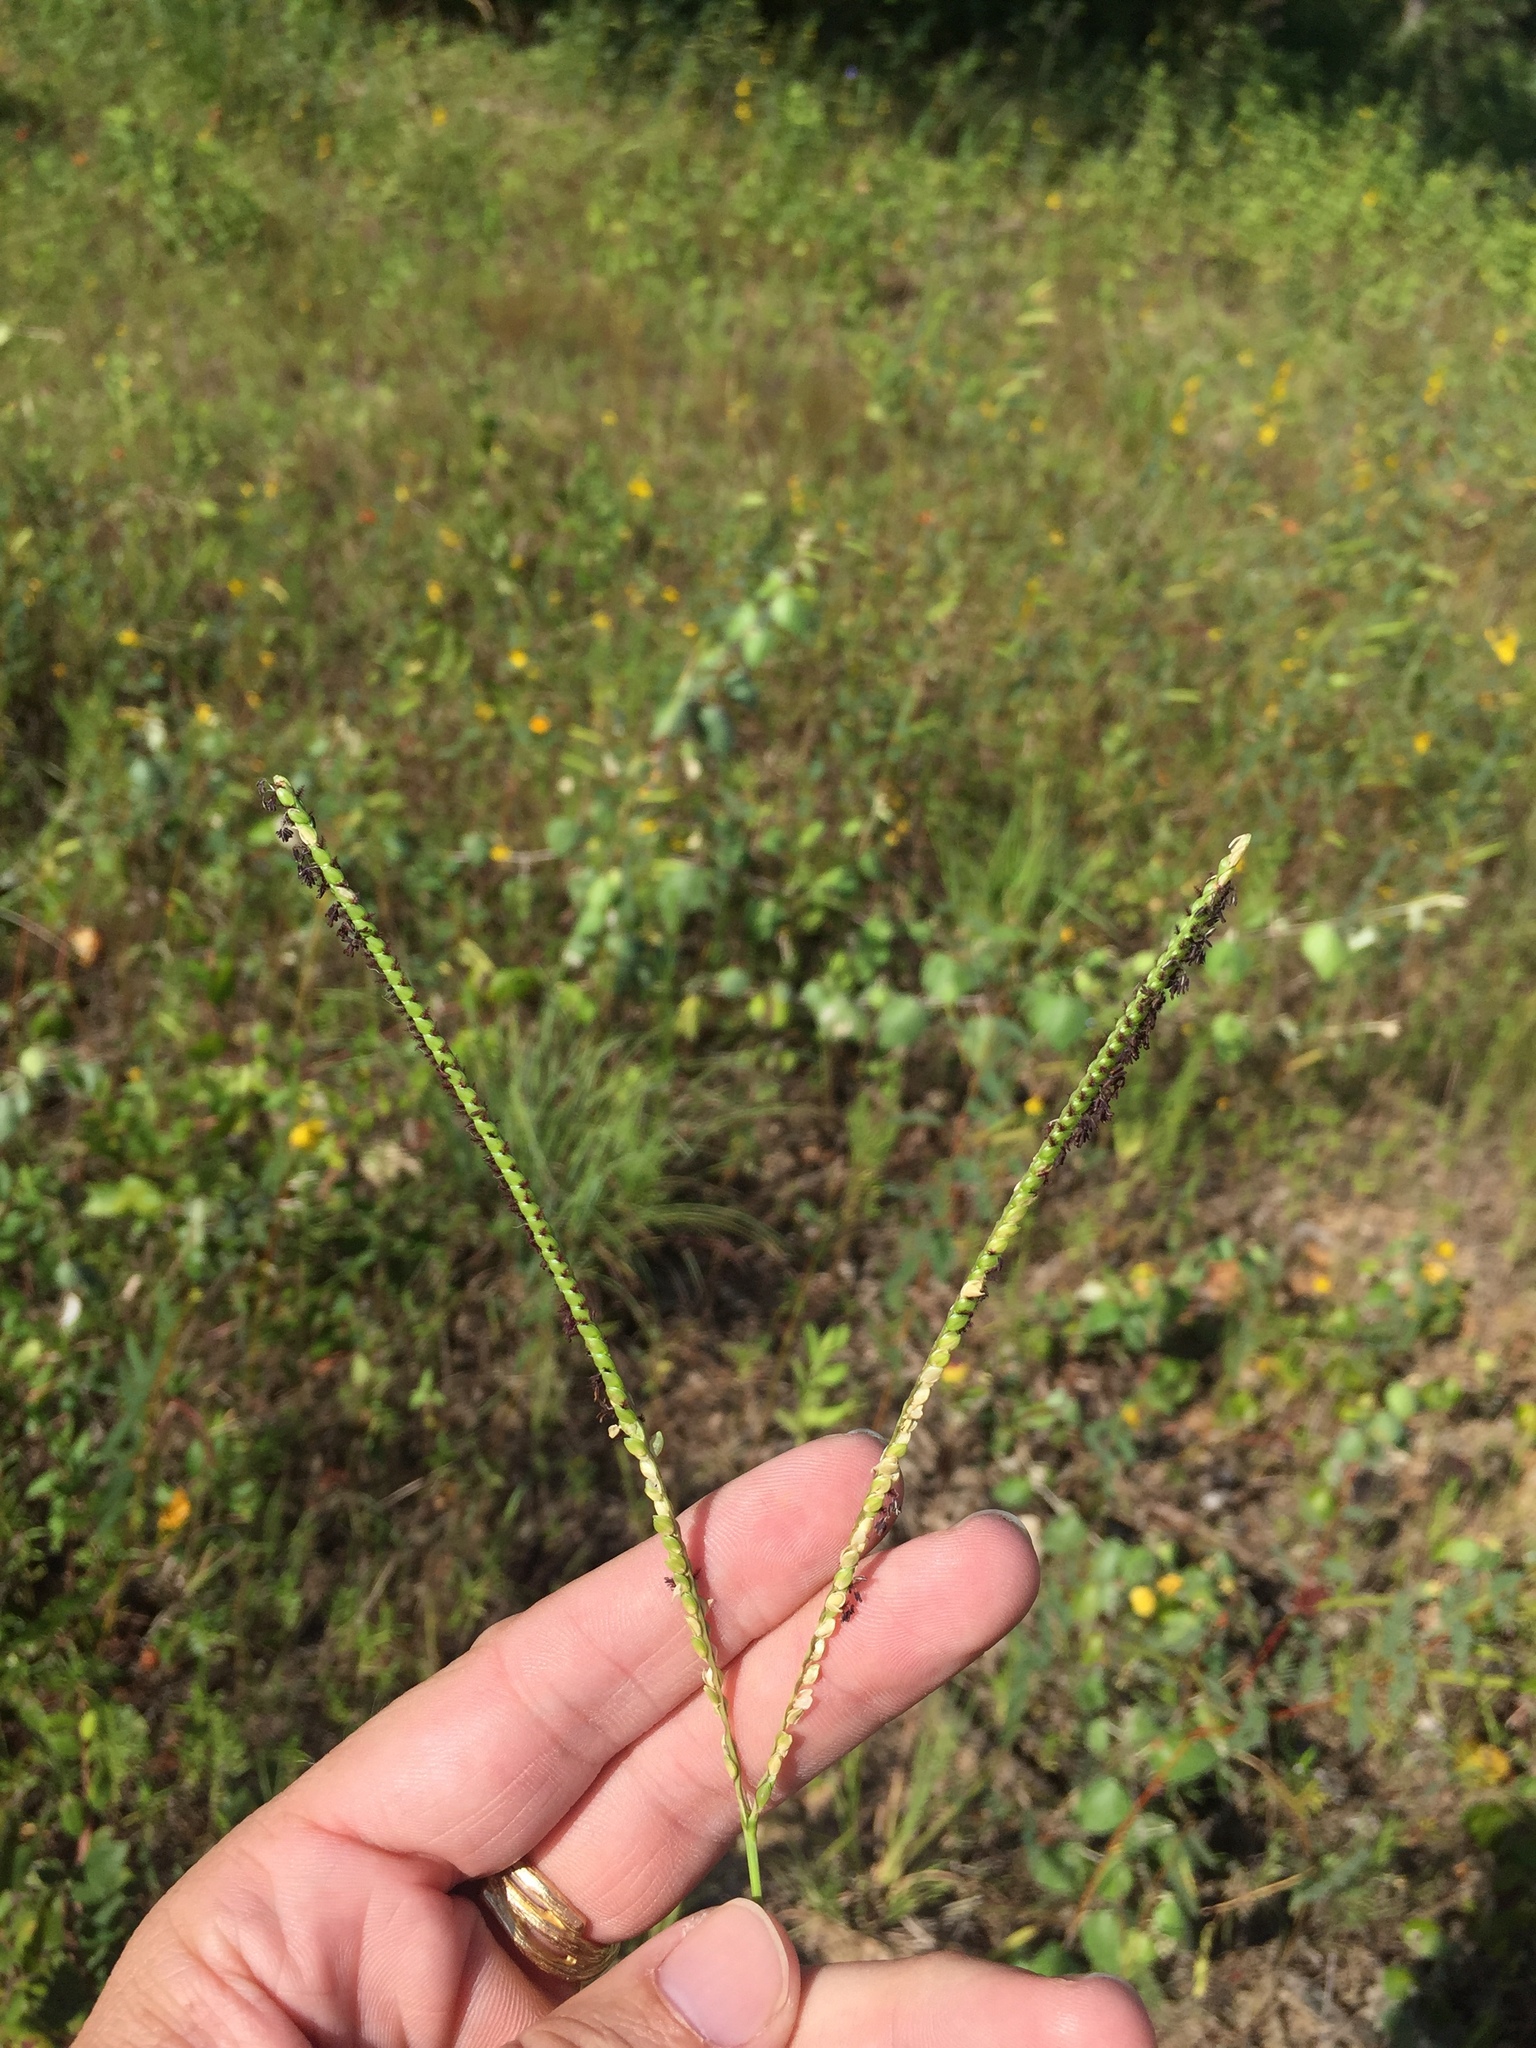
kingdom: Plantae
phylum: Tracheophyta
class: Liliopsida
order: Poales
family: Poaceae
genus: Paspalum
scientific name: Paspalum notatum
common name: Bahiagrass
